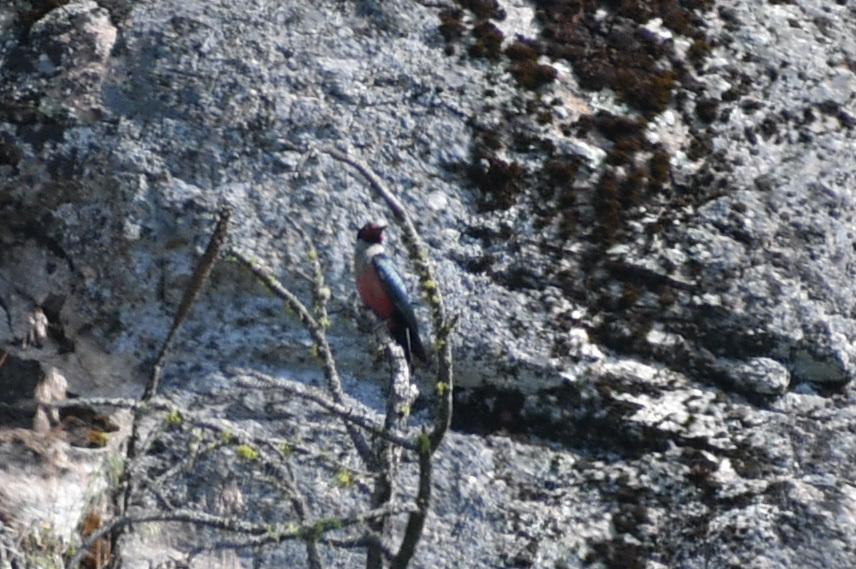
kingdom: Animalia
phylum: Chordata
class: Aves
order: Piciformes
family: Picidae
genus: Melanerpes
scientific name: Melanerpes lewis
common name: Lewis's woodpecker
